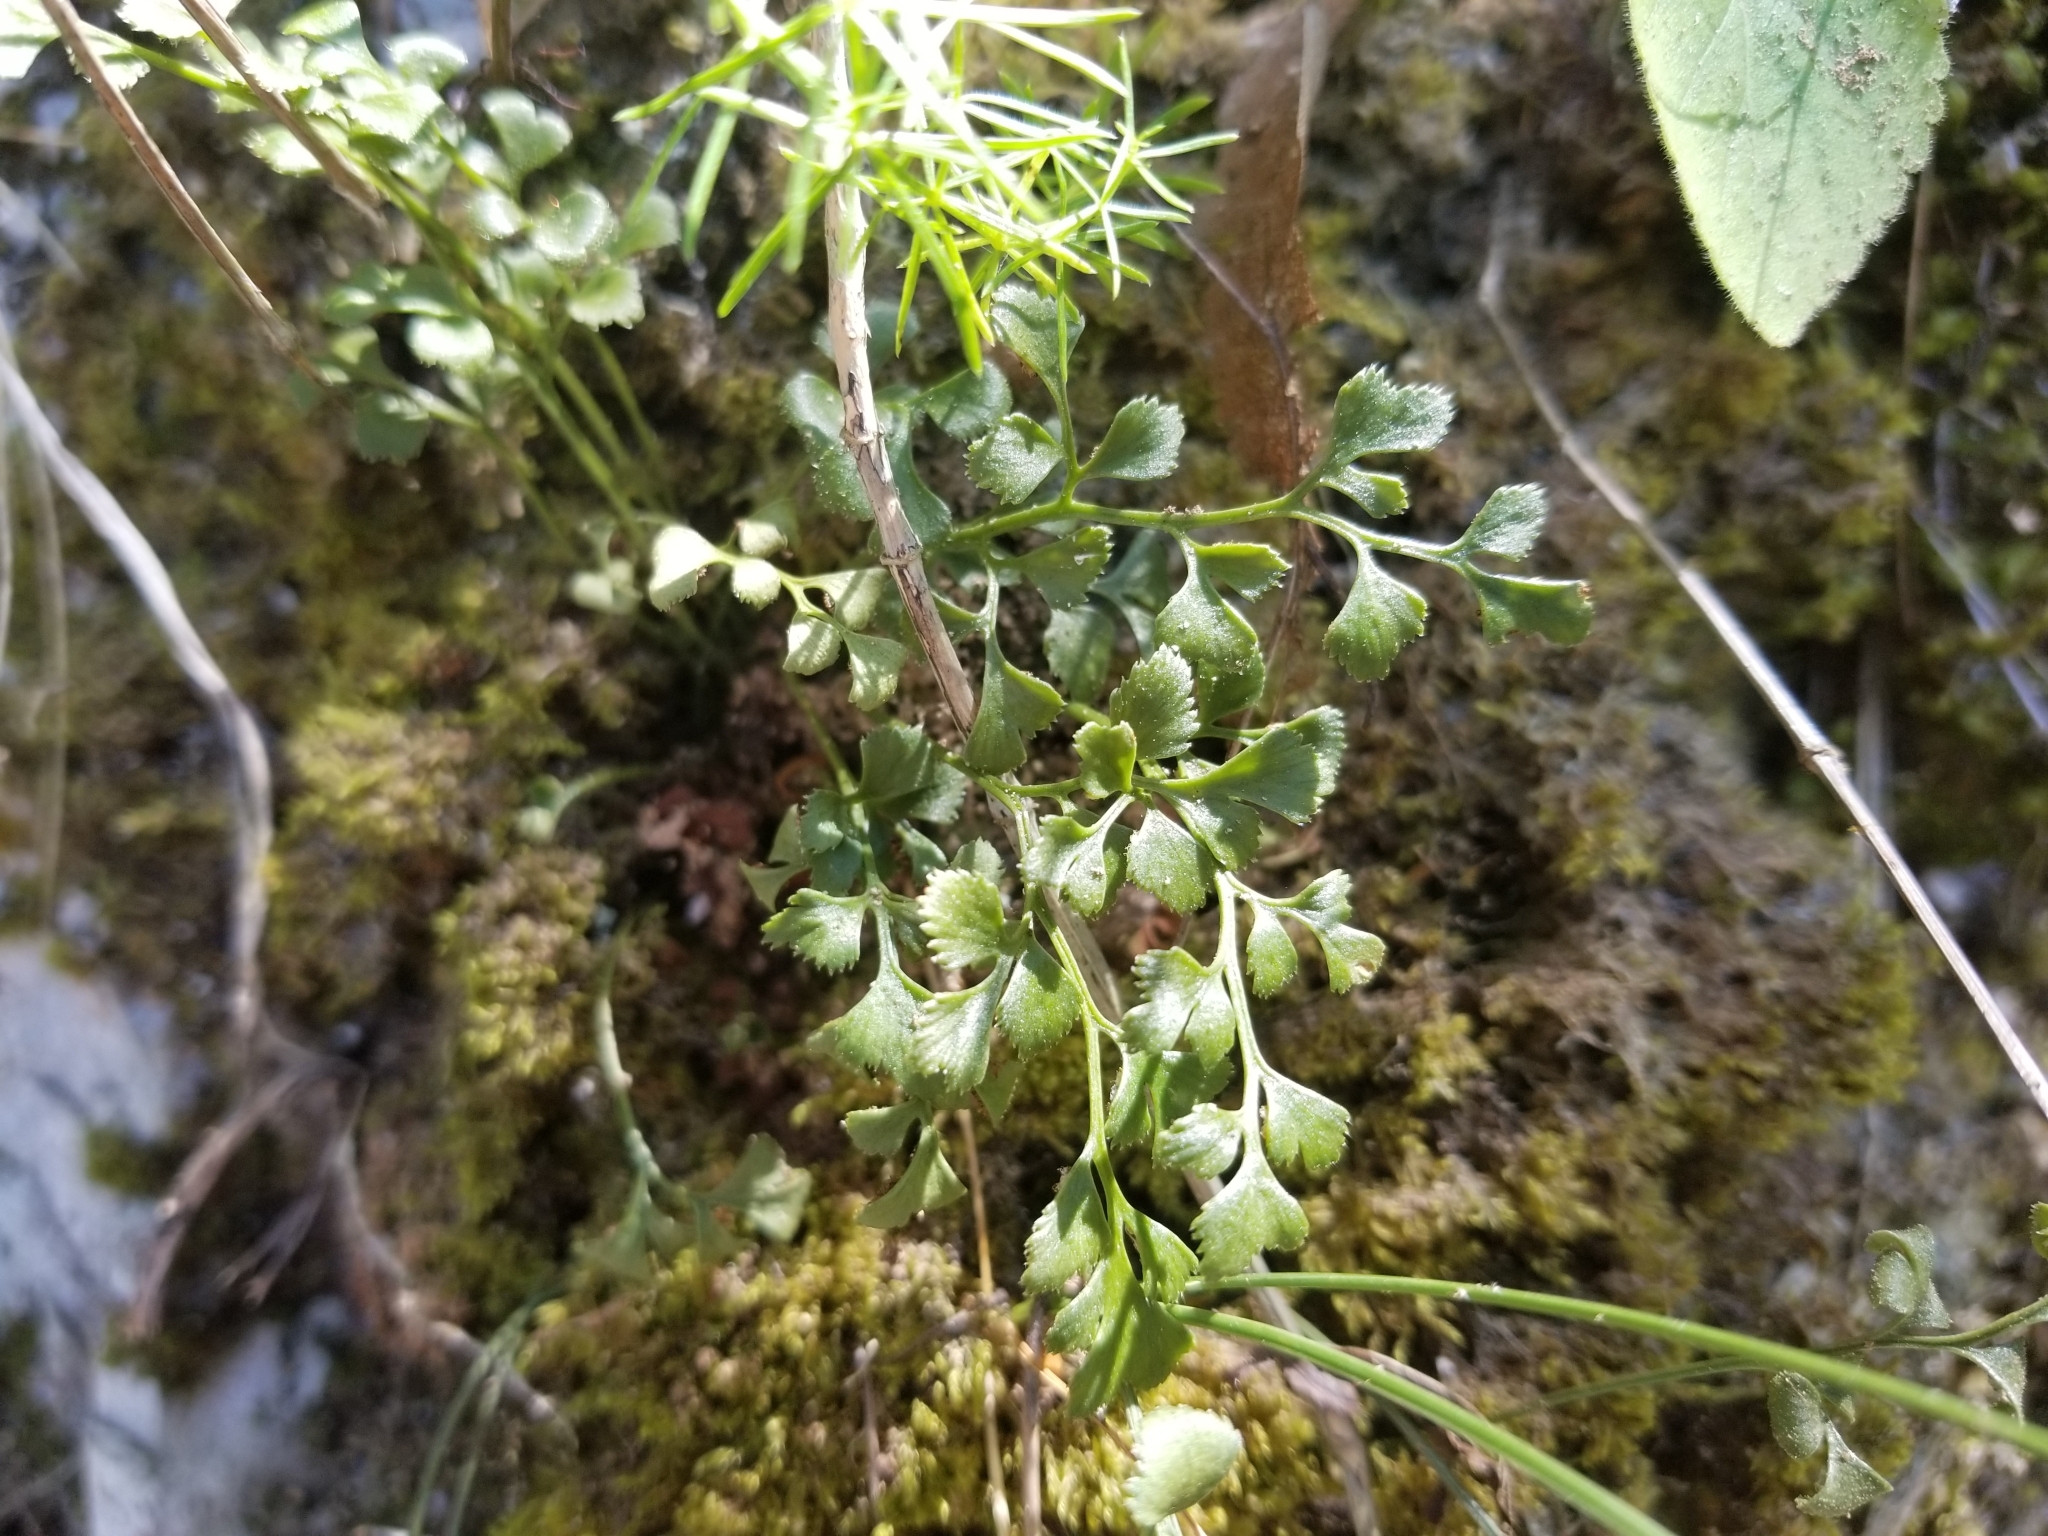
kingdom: Plantae
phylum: Tracheophyta
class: Polypodiopsida
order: Polypodiales
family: Aspleniaceae
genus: Asplenium
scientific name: Asplenium ruta-muraria
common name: Wall-rue
